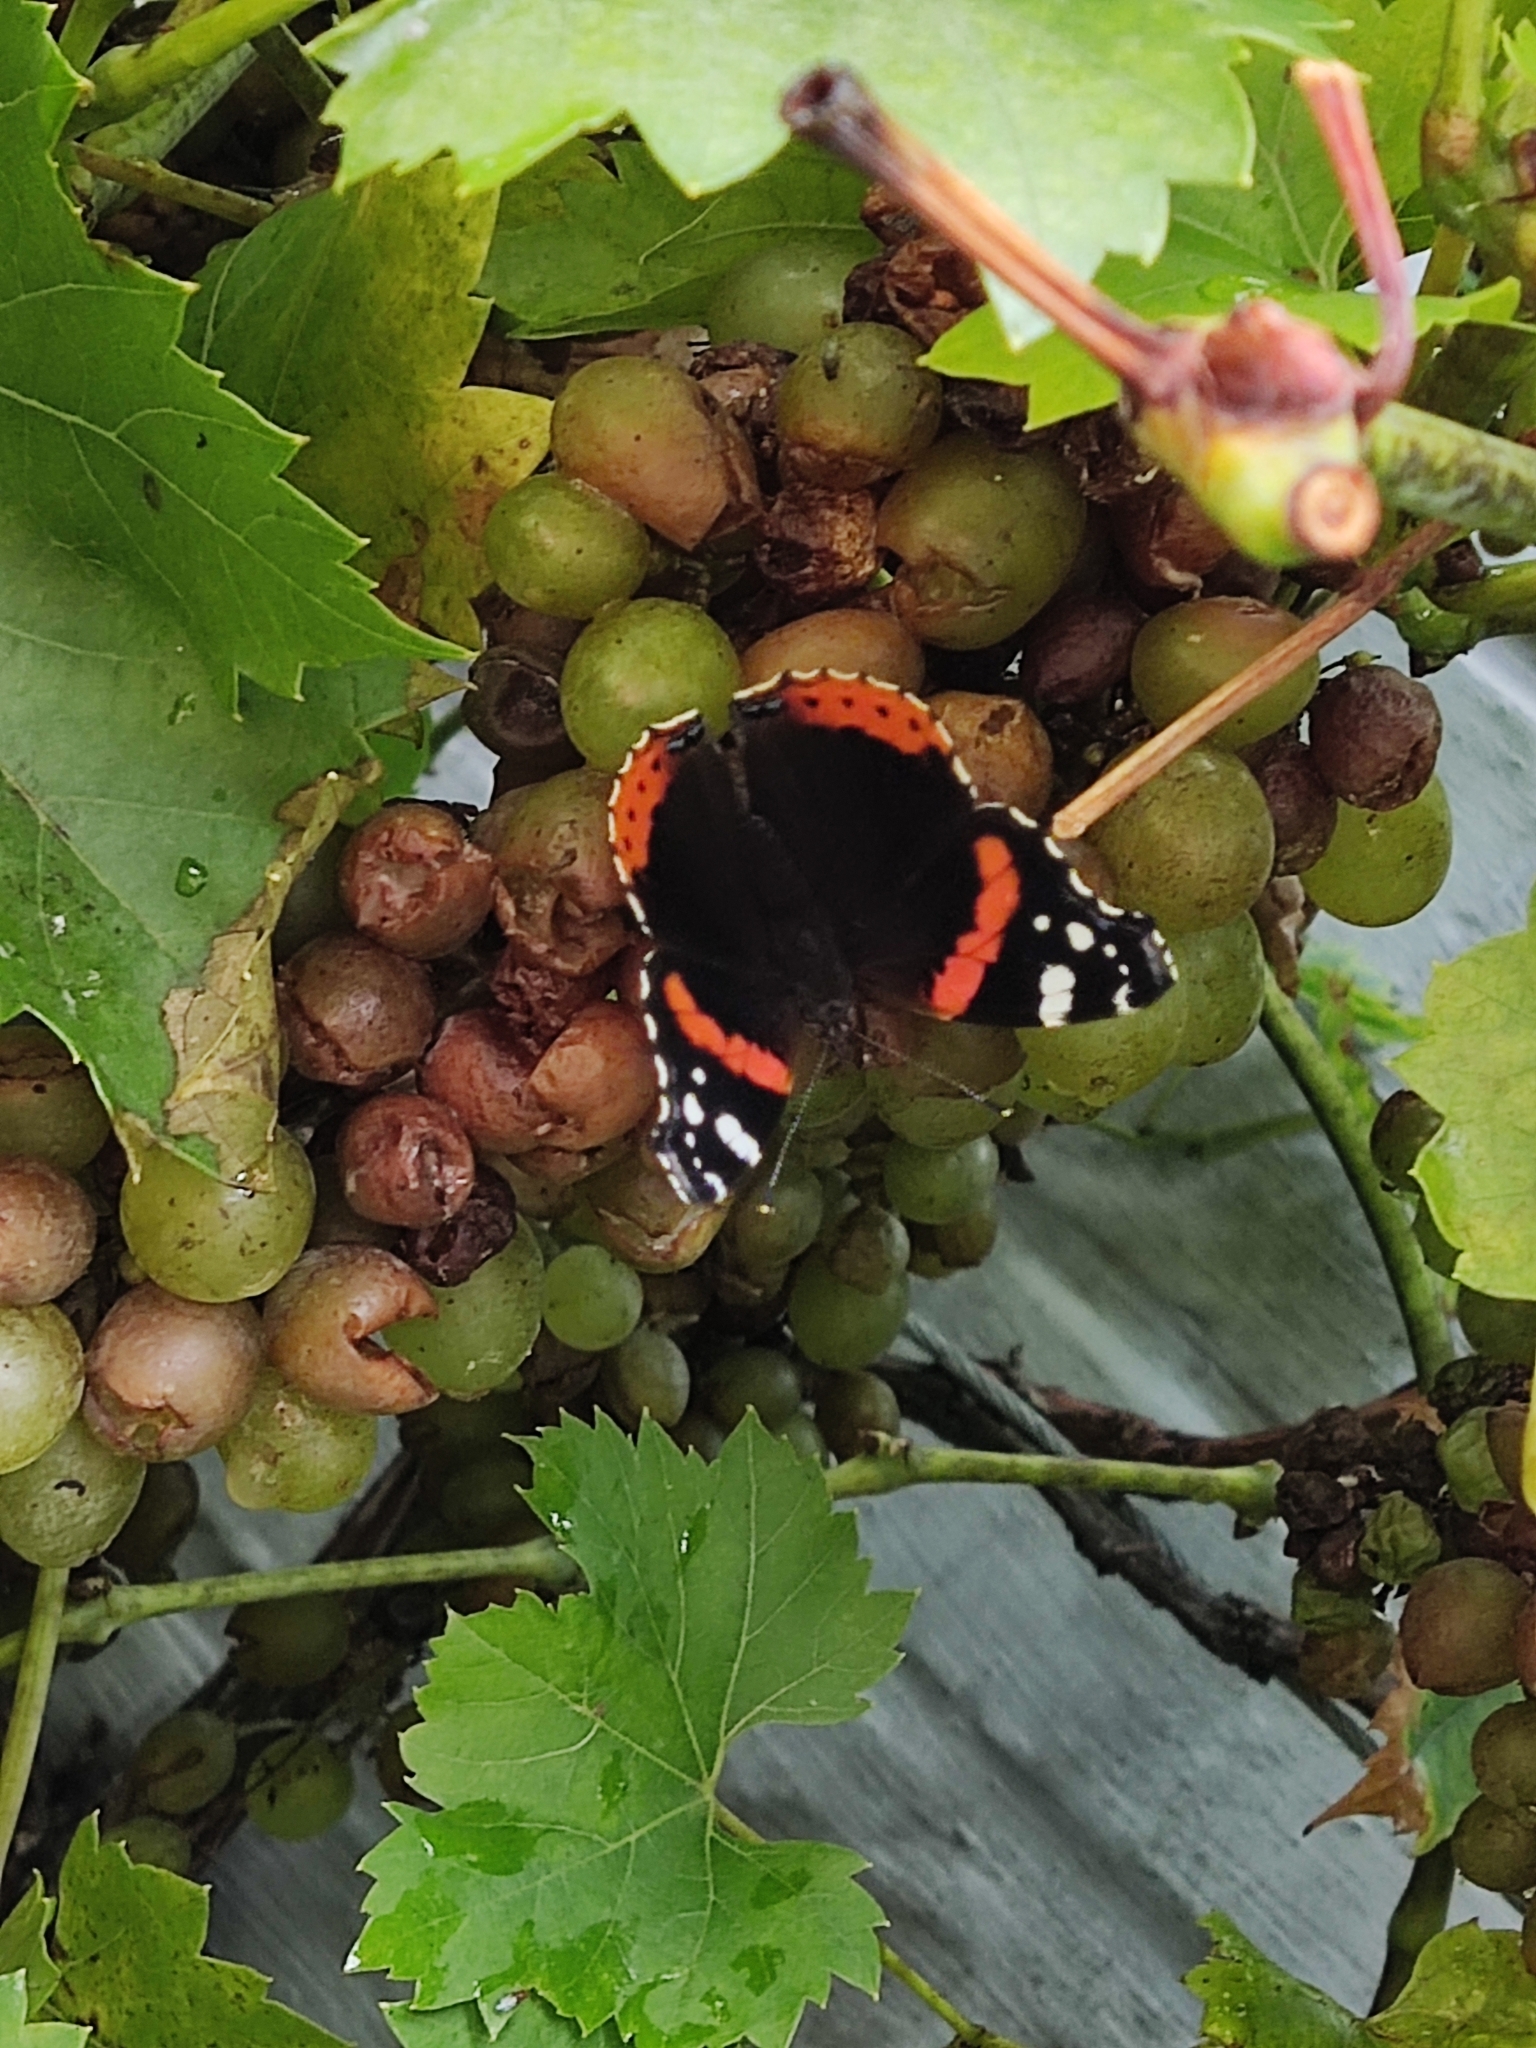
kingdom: Animalia
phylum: Arthropoda
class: Insecta
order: Lepidoptera
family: Nymphalidae
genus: Vanessa
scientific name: Vanessa atalanta
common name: Red admiral
